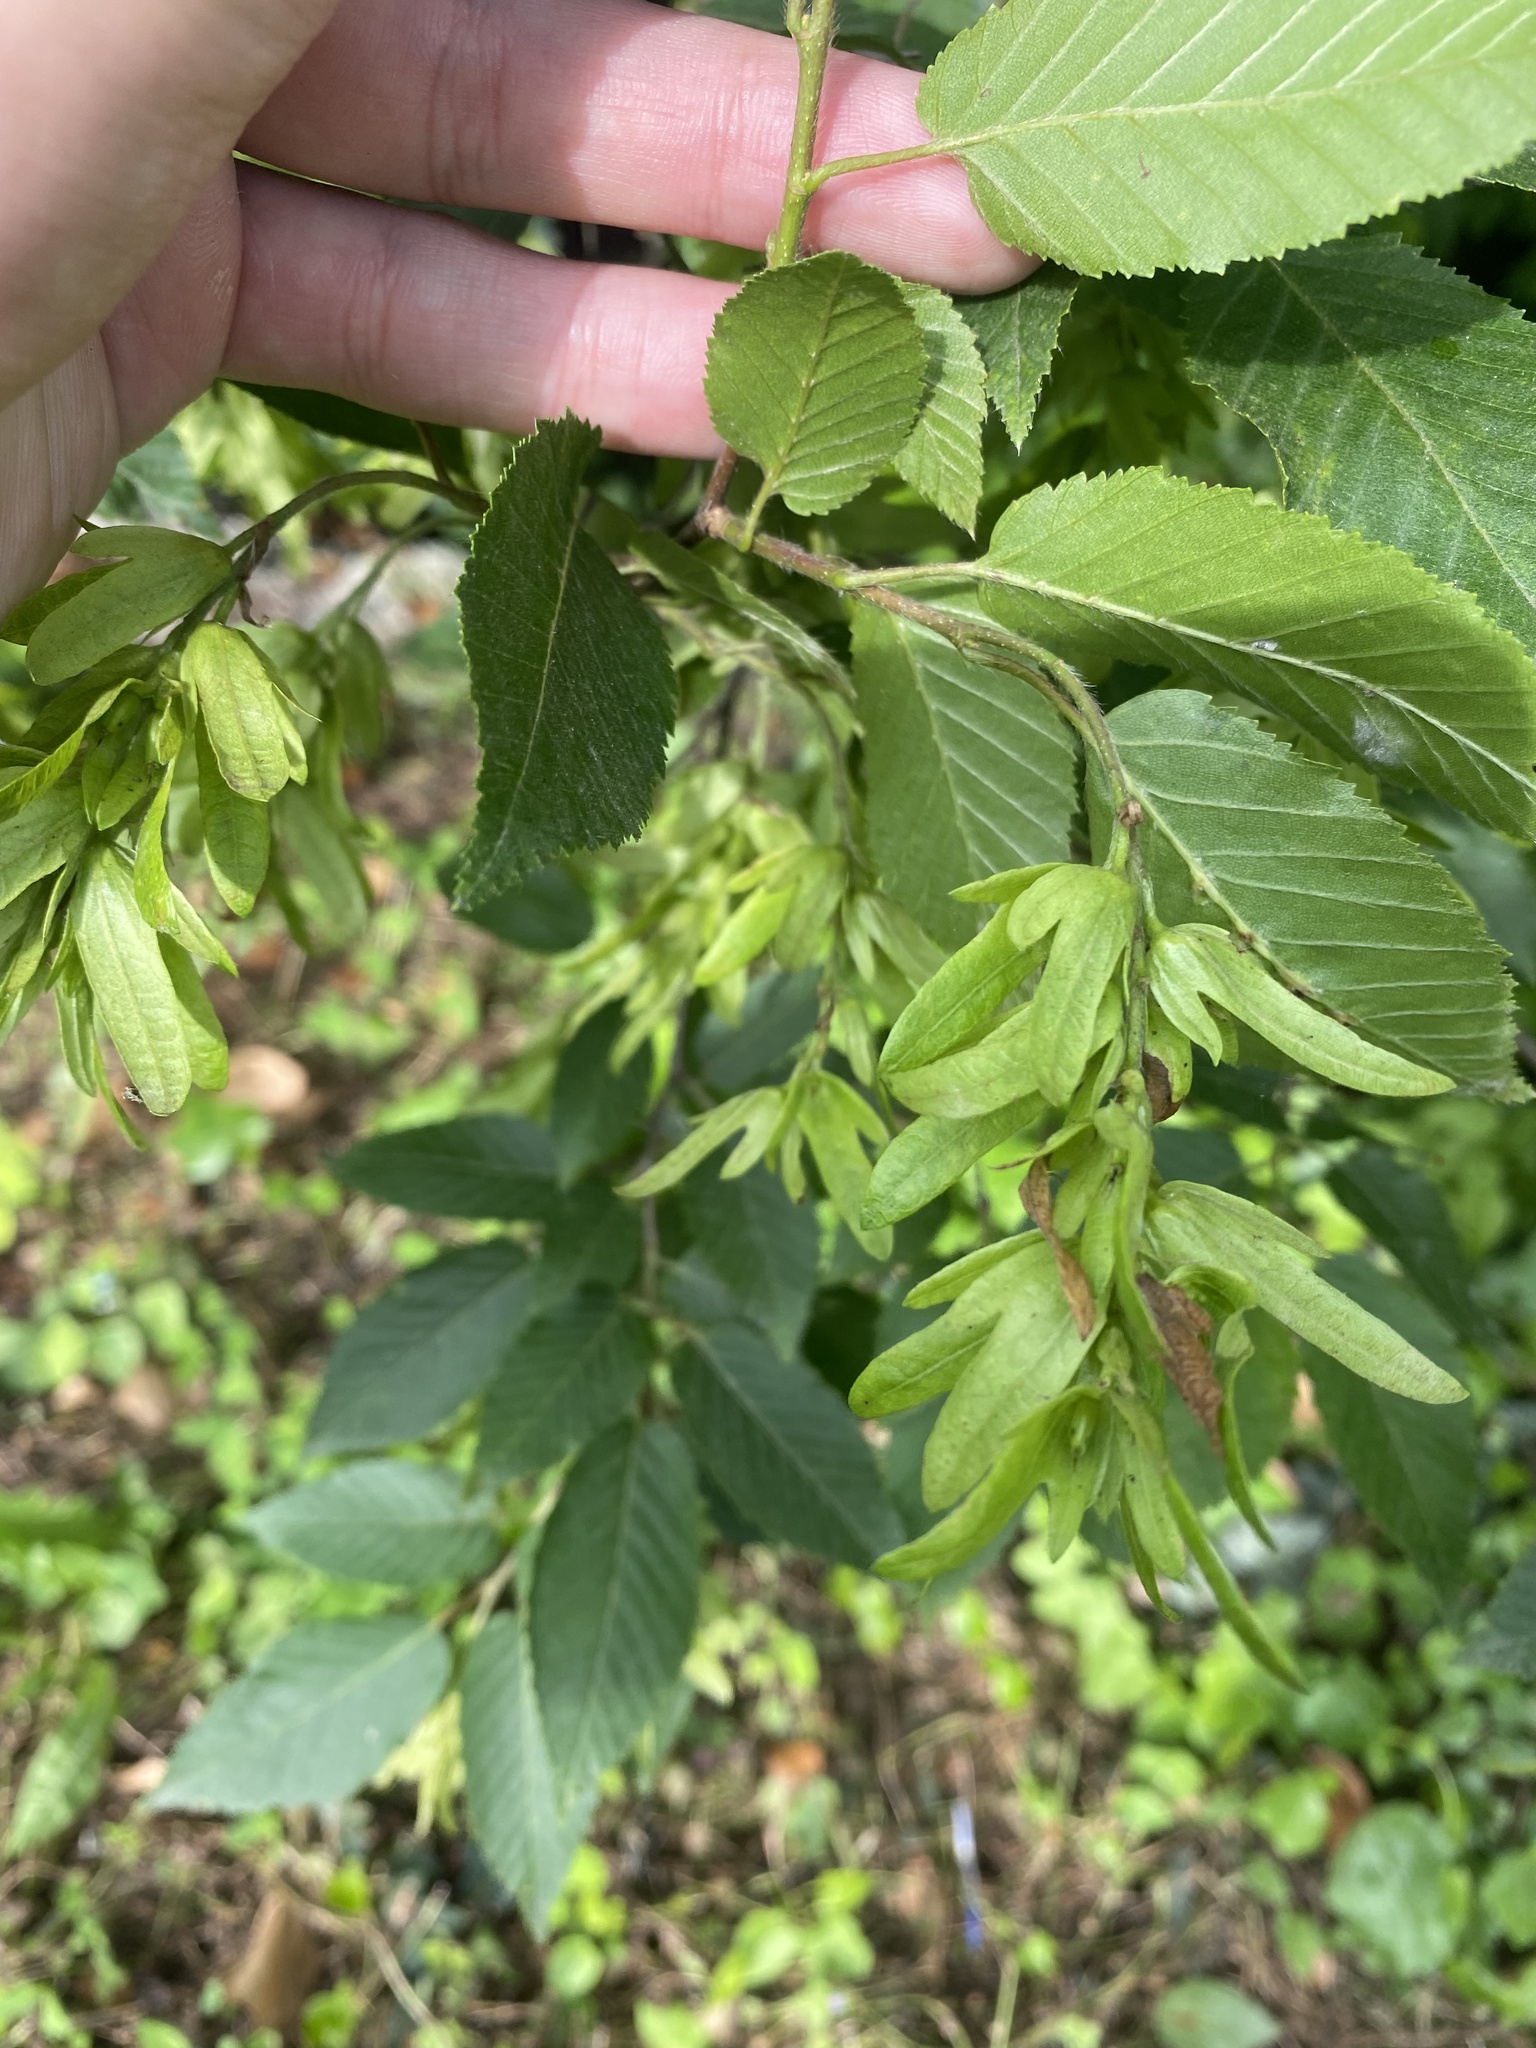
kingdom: Plantae
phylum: Tracheophyta
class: Magnoliopsida
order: Fagales
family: Betulaceae
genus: Carpinus
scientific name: Carpinus betulus
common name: Hornbeam
